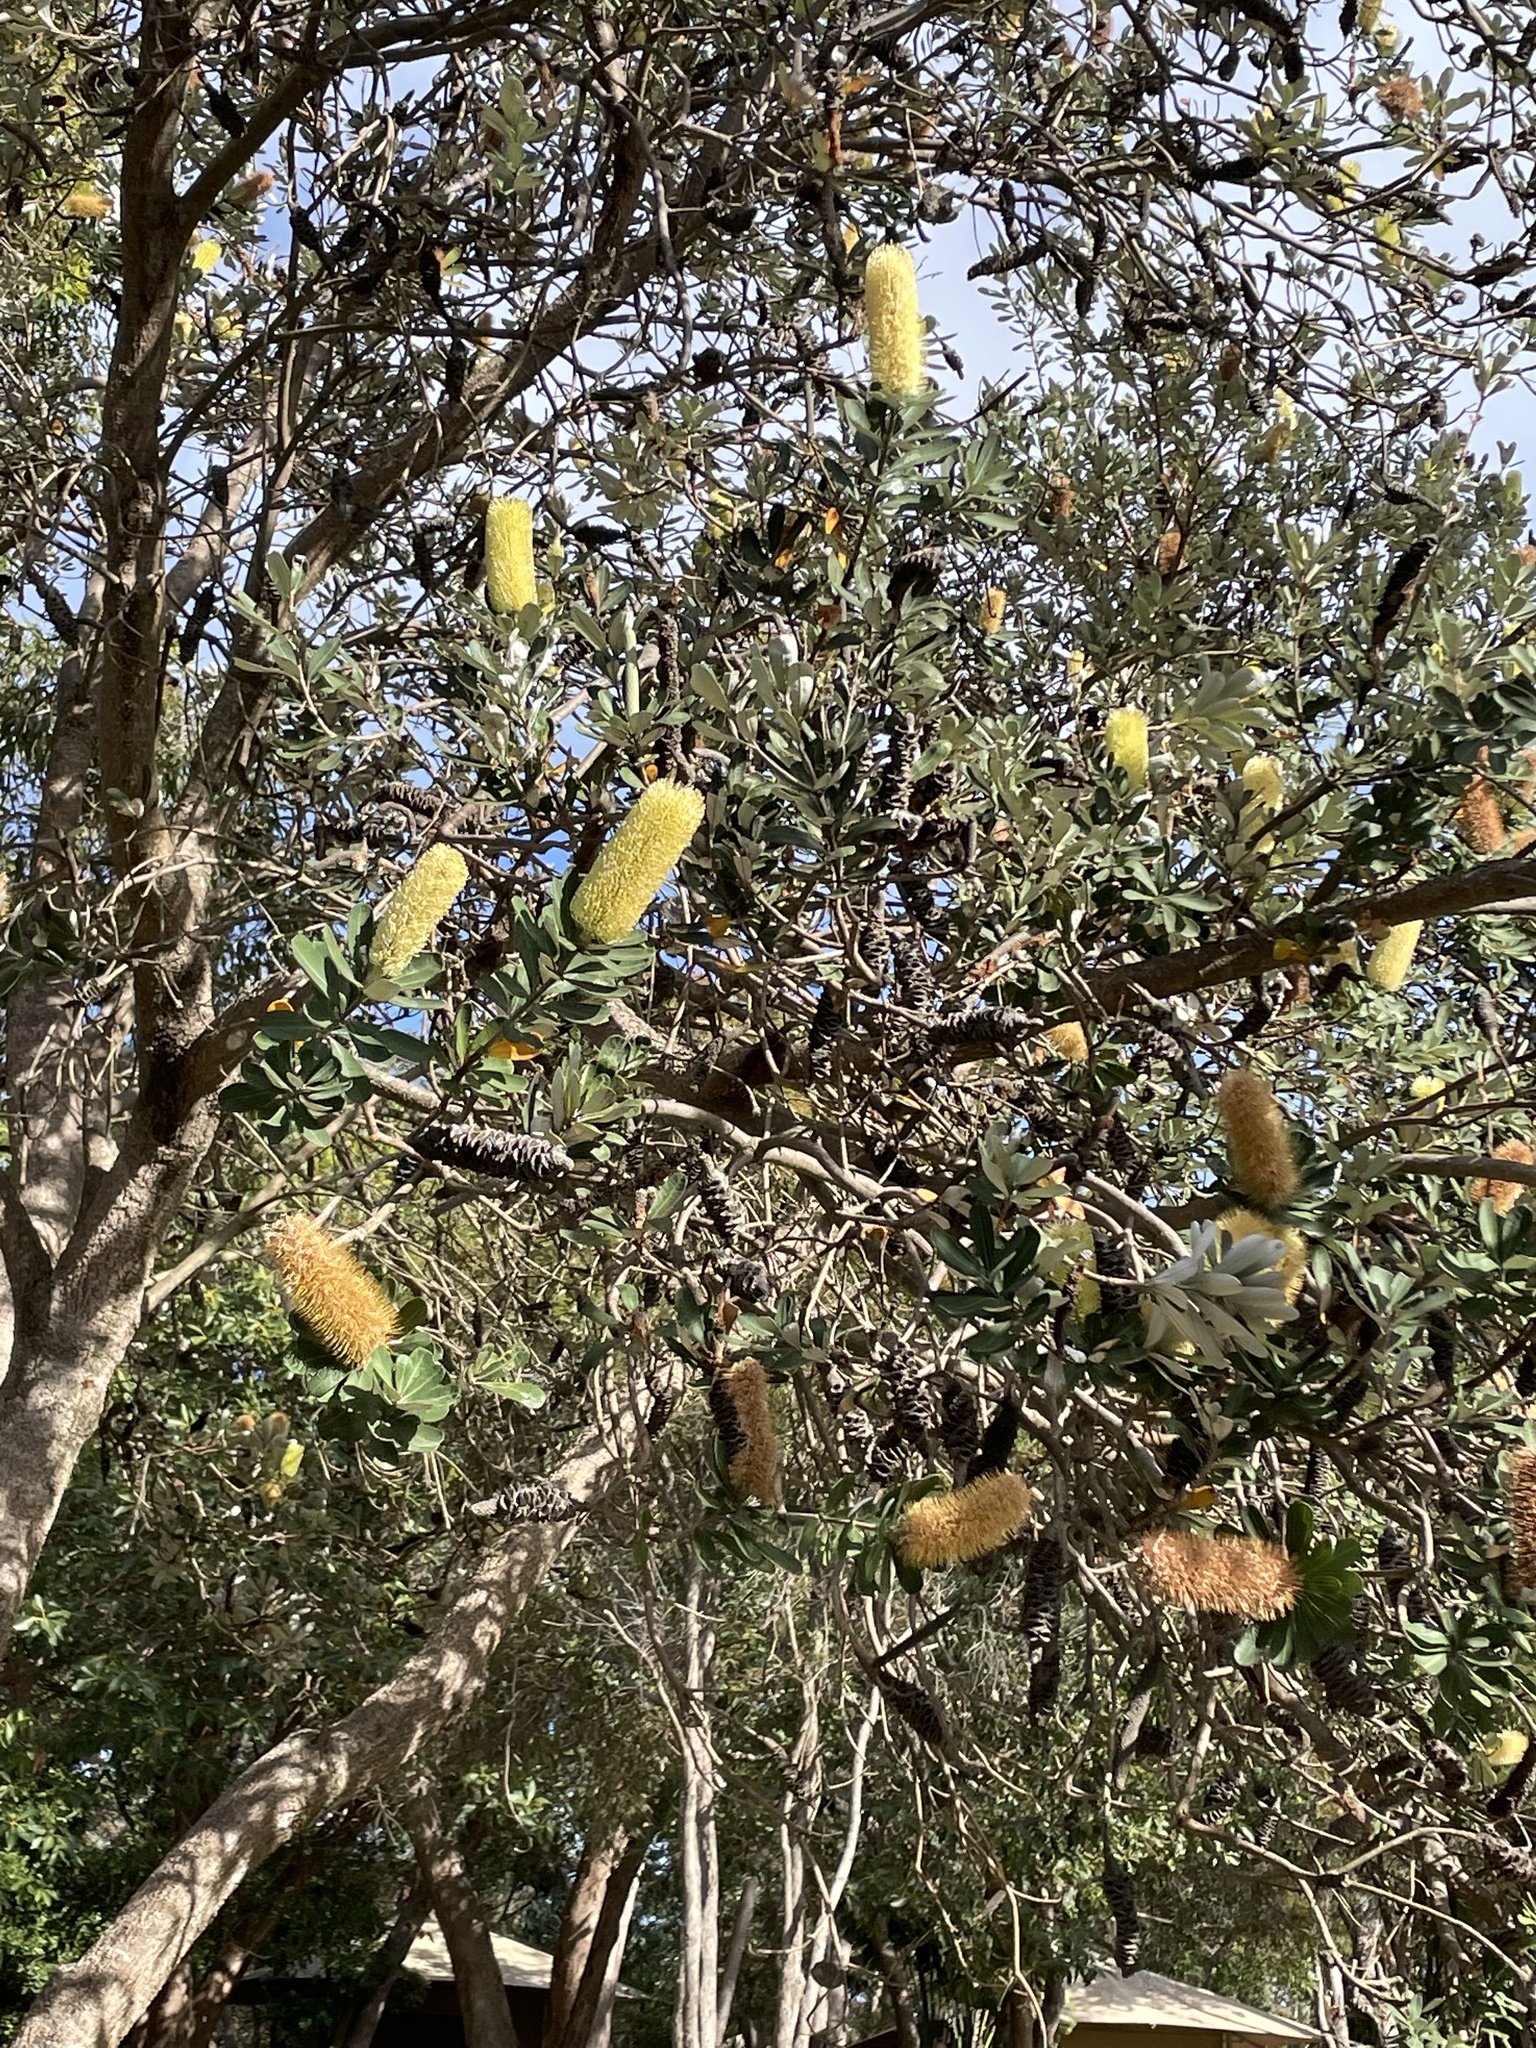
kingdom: Plantae
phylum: Tracheophyta
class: Magnoliopsida
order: Proteales
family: Proteaceae
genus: Banksia
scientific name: Banksia integrifolia
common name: White-honeysuckle
